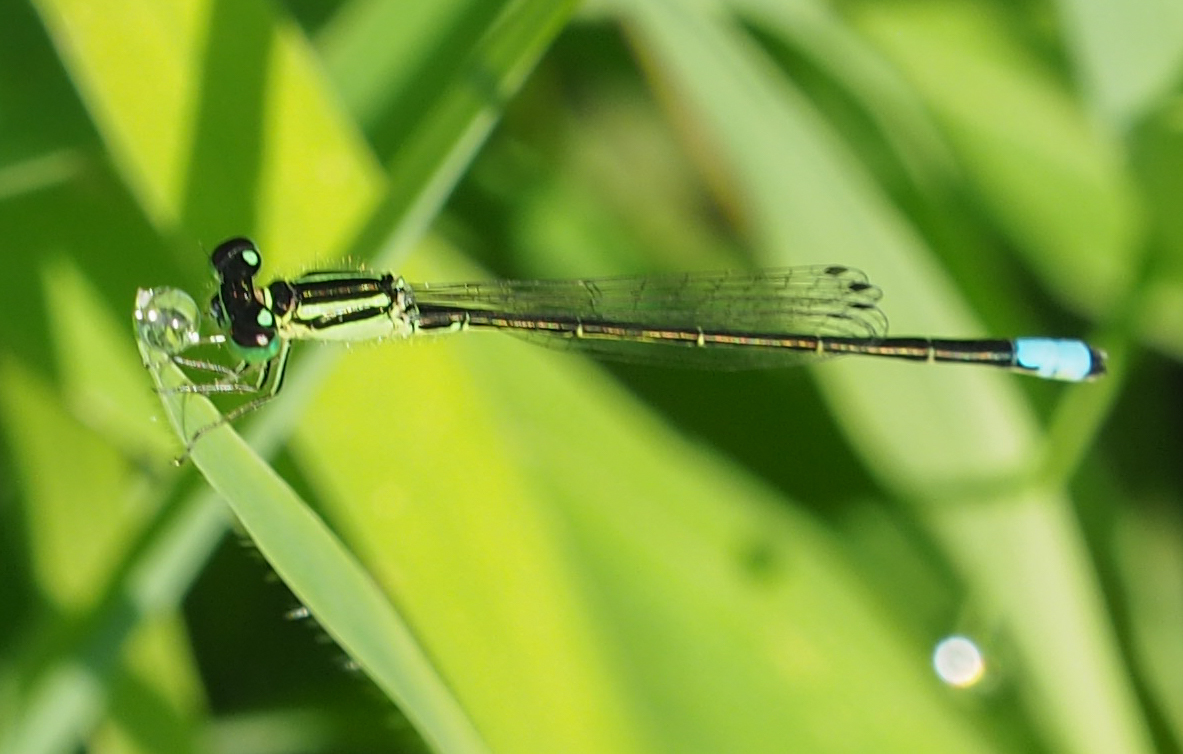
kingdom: Animalia
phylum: Arthropoda
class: Insecta
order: Odonata
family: Coenagrionidae
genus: Ischnura
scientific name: Ischnura verticalis
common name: Eastern forktail
